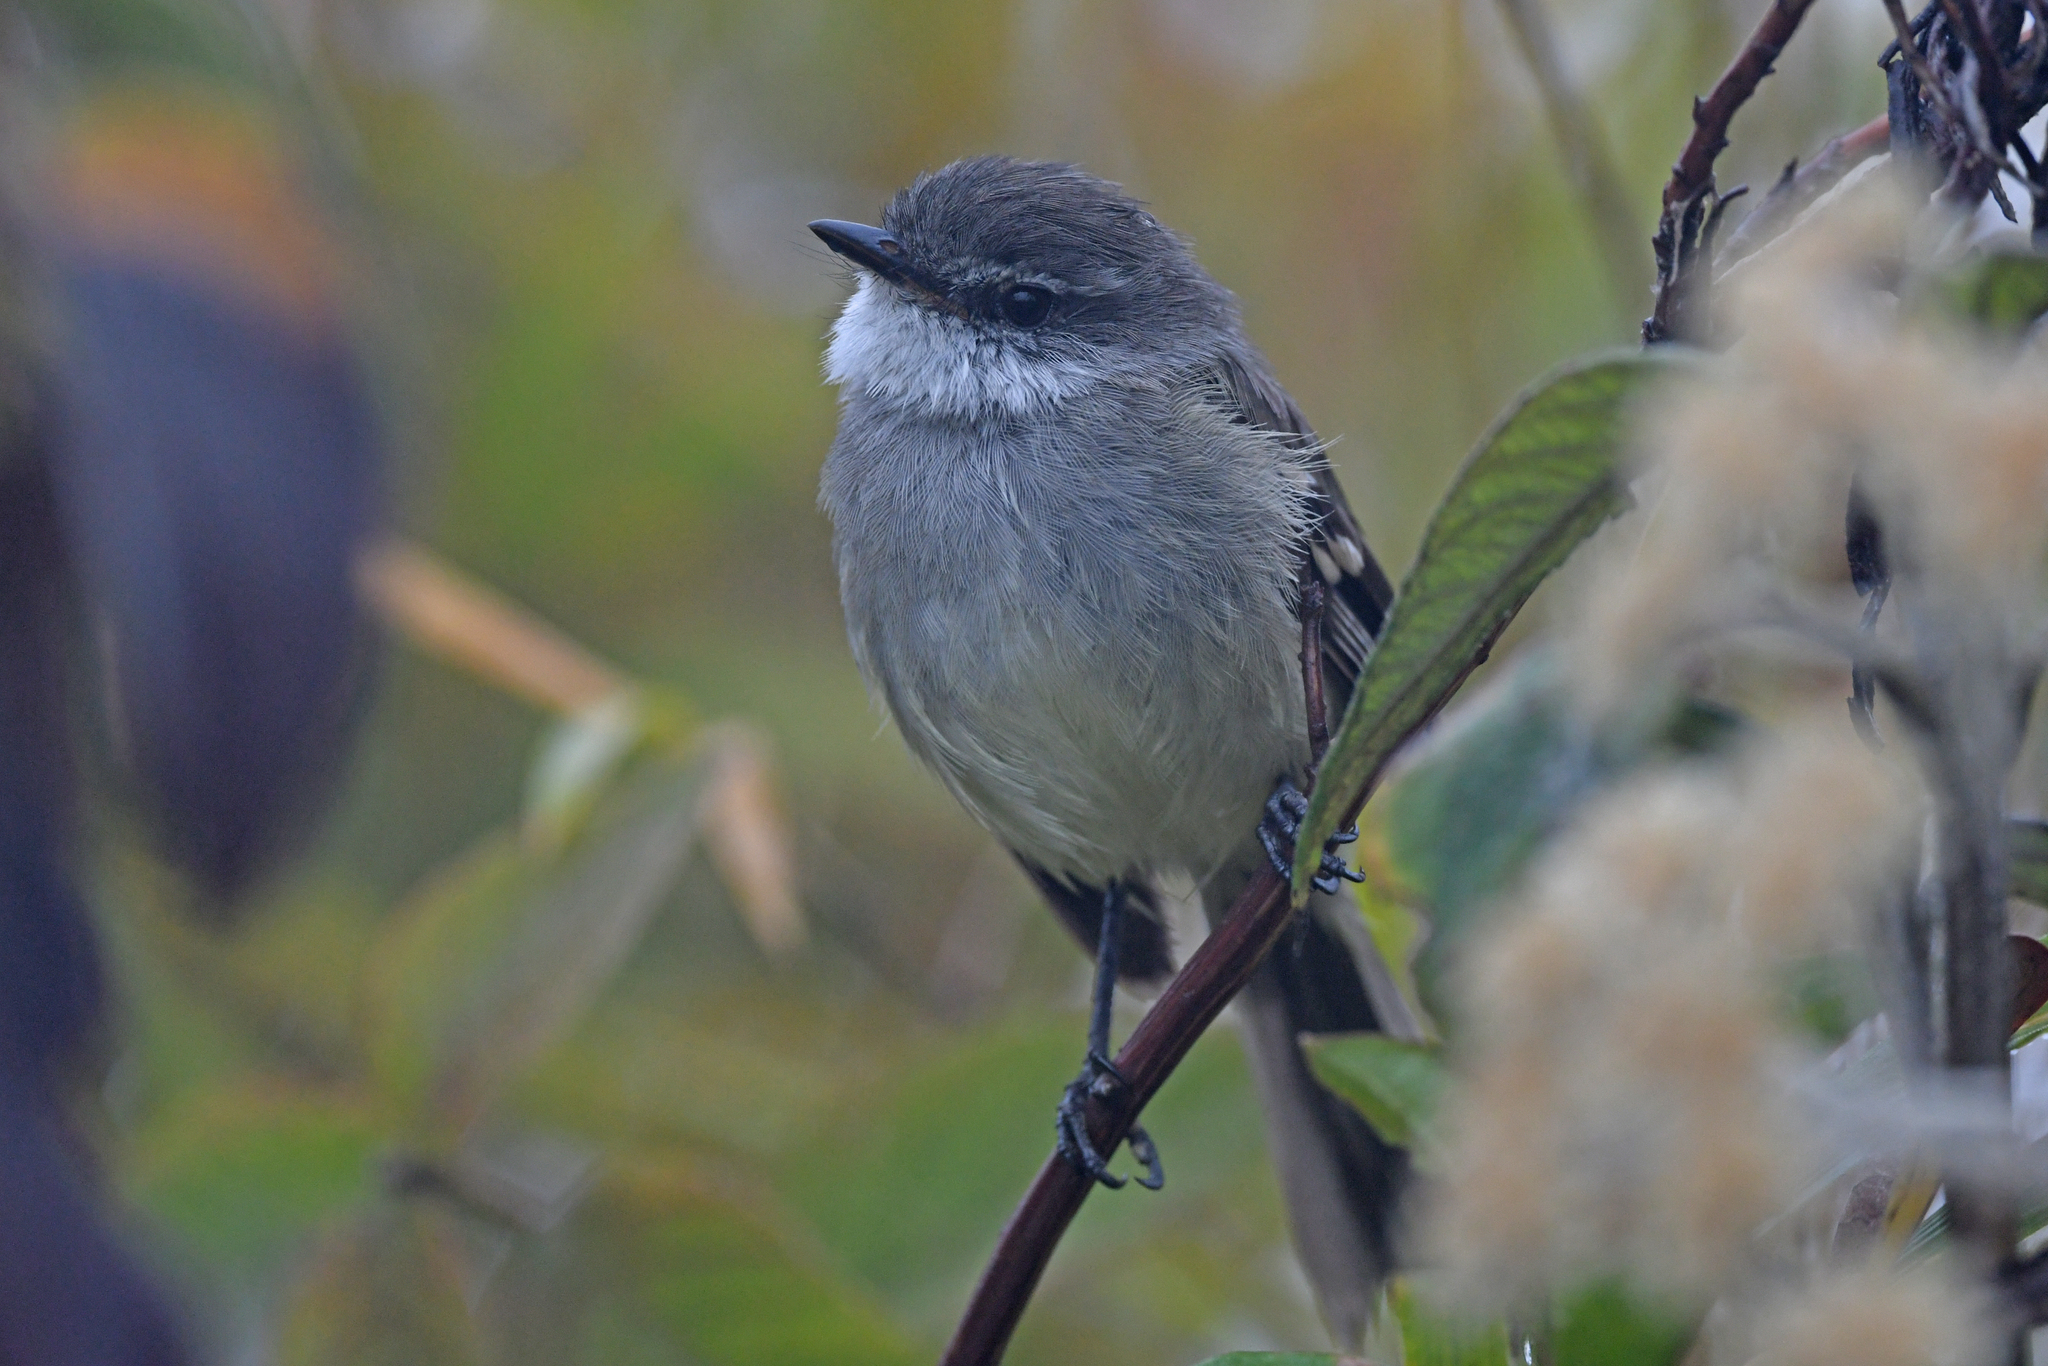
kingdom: Animalia
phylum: Chordata
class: Aves
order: Passeriformes
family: Tyrannidae
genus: Mecocerculus
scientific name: Mecocerculus leucophrys
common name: White-throated tyrannulet
